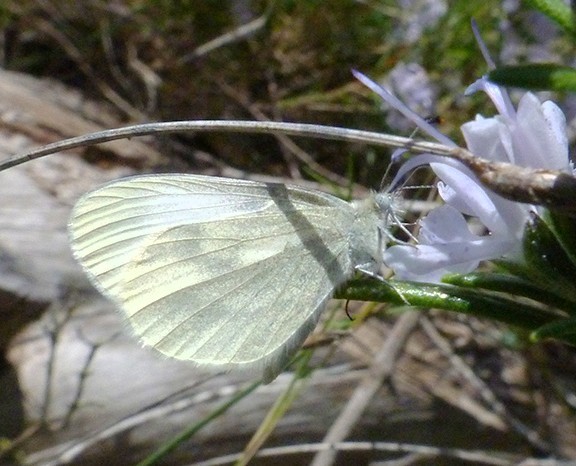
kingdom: Animalia
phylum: Arthropoda
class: Insecta
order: Lepidoptera
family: Pieridae
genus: Leptidea
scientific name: Leptidea sinapis
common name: Wood white
